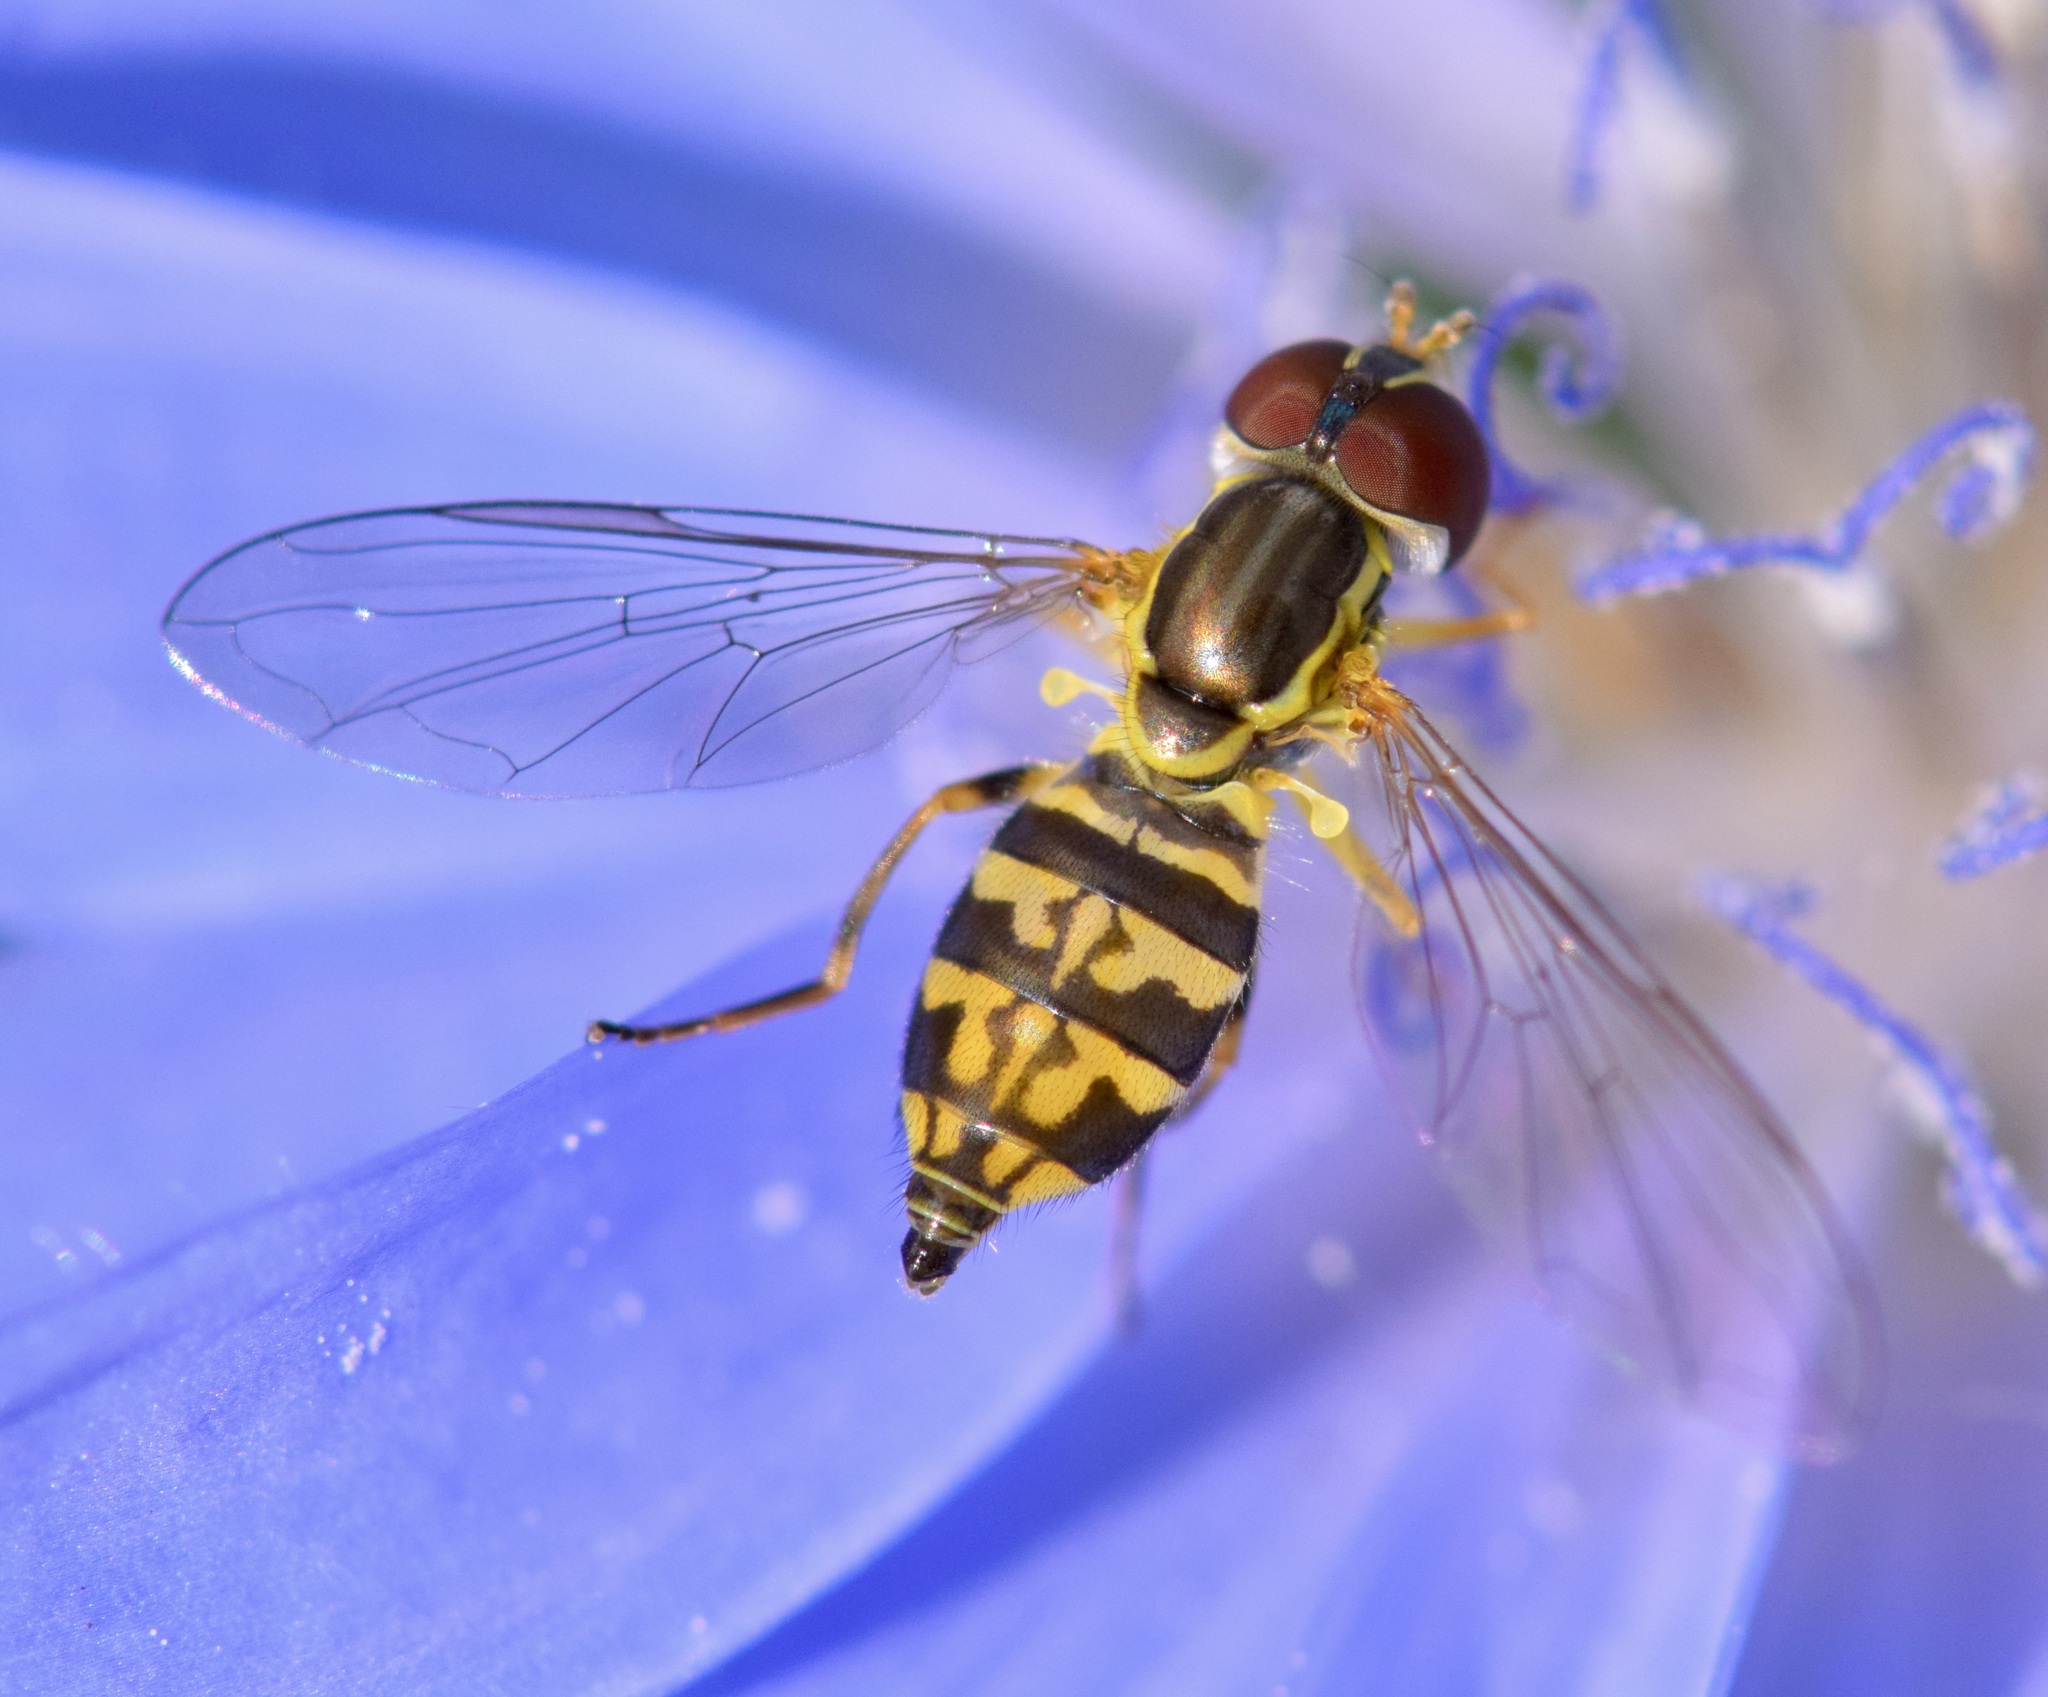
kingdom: Animalia
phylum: Arthropoda
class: Insecta
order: Diptera
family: Syrphidae
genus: Toxomerus
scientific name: Toxomerus geminatus
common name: Eastern calligrapher
